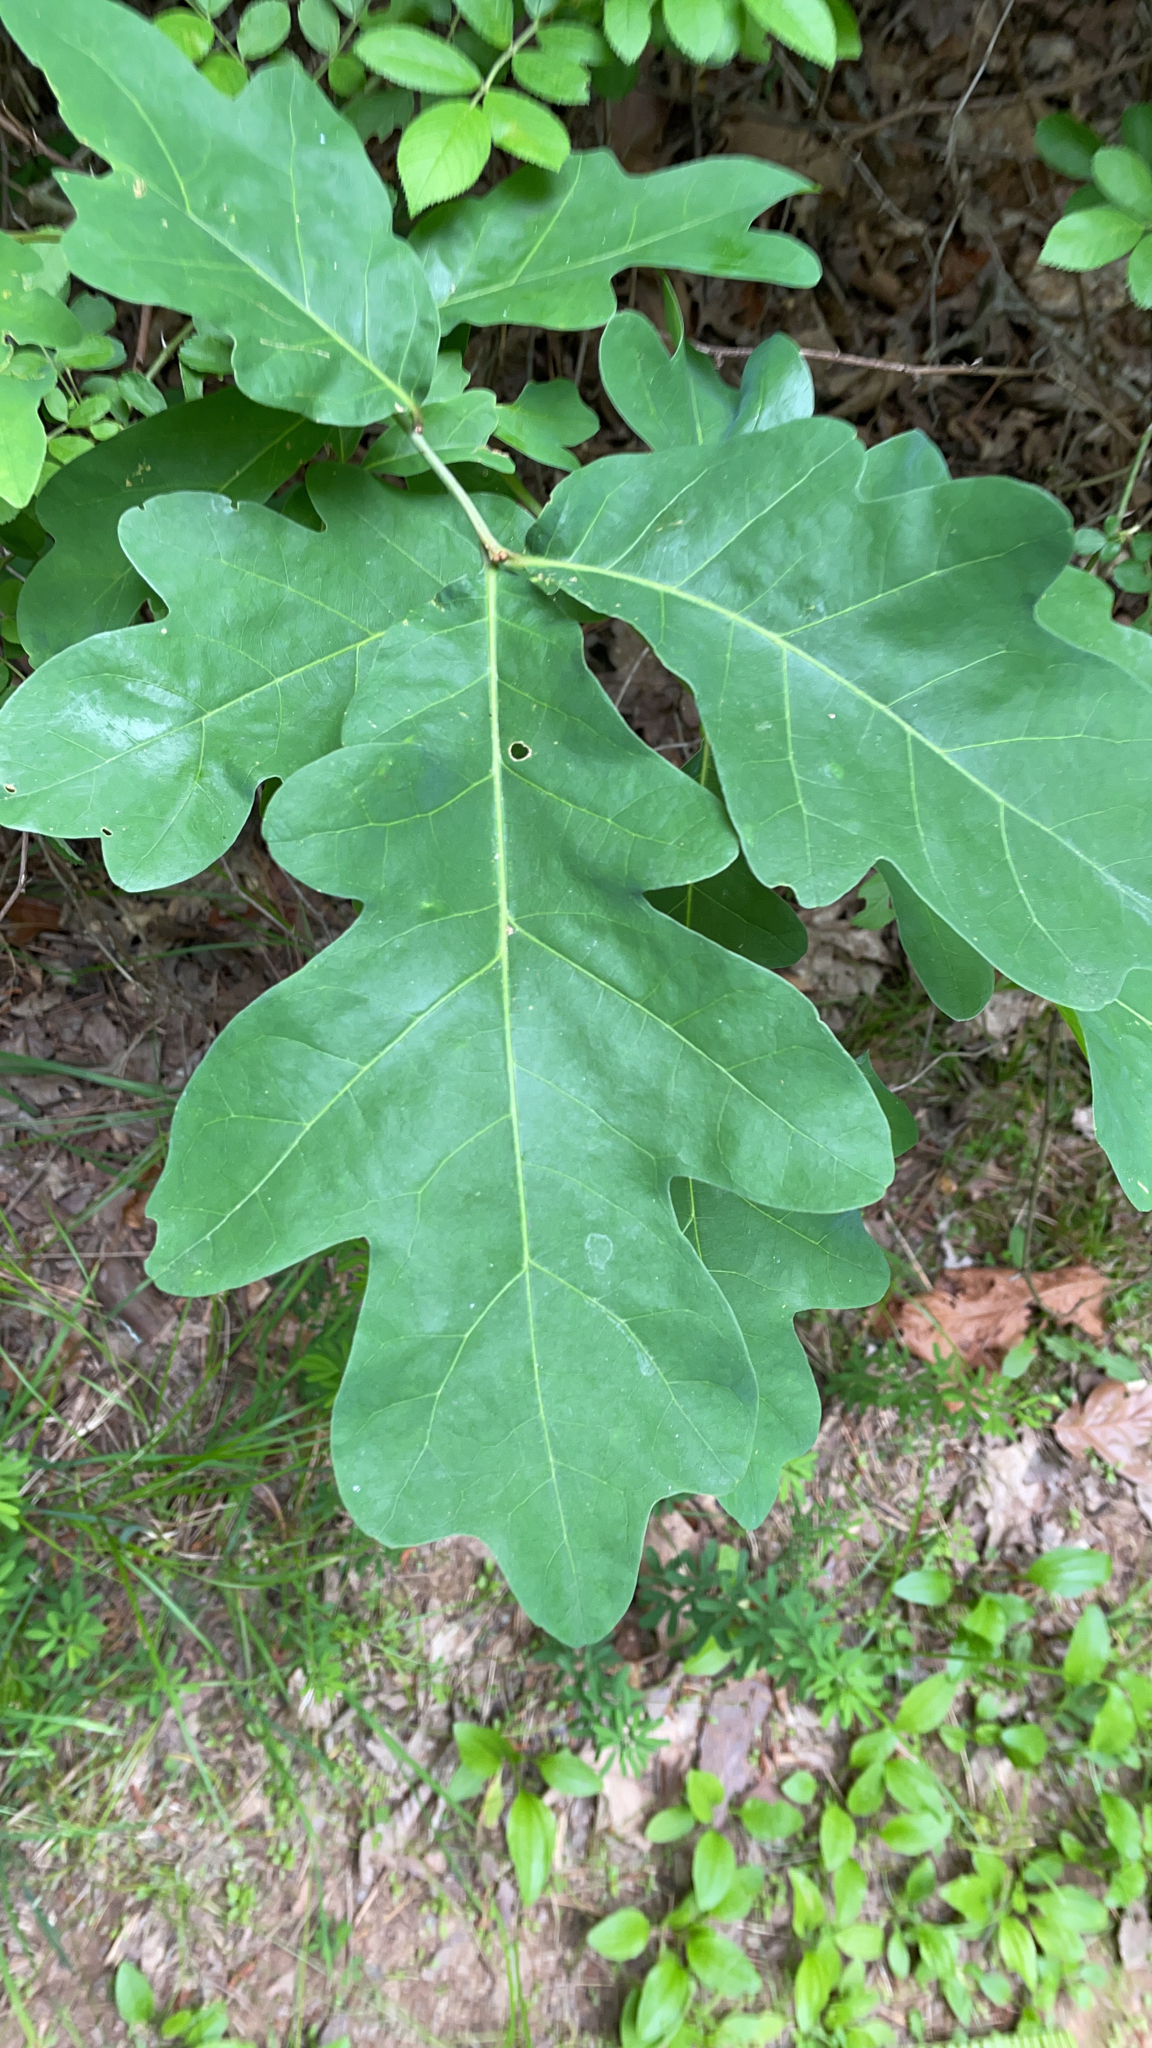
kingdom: Plantae
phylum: Tracheophyta
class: Magnoliopsida
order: Fagales
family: Fagaceae
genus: Quercus
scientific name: Quercus alba
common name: White oak
